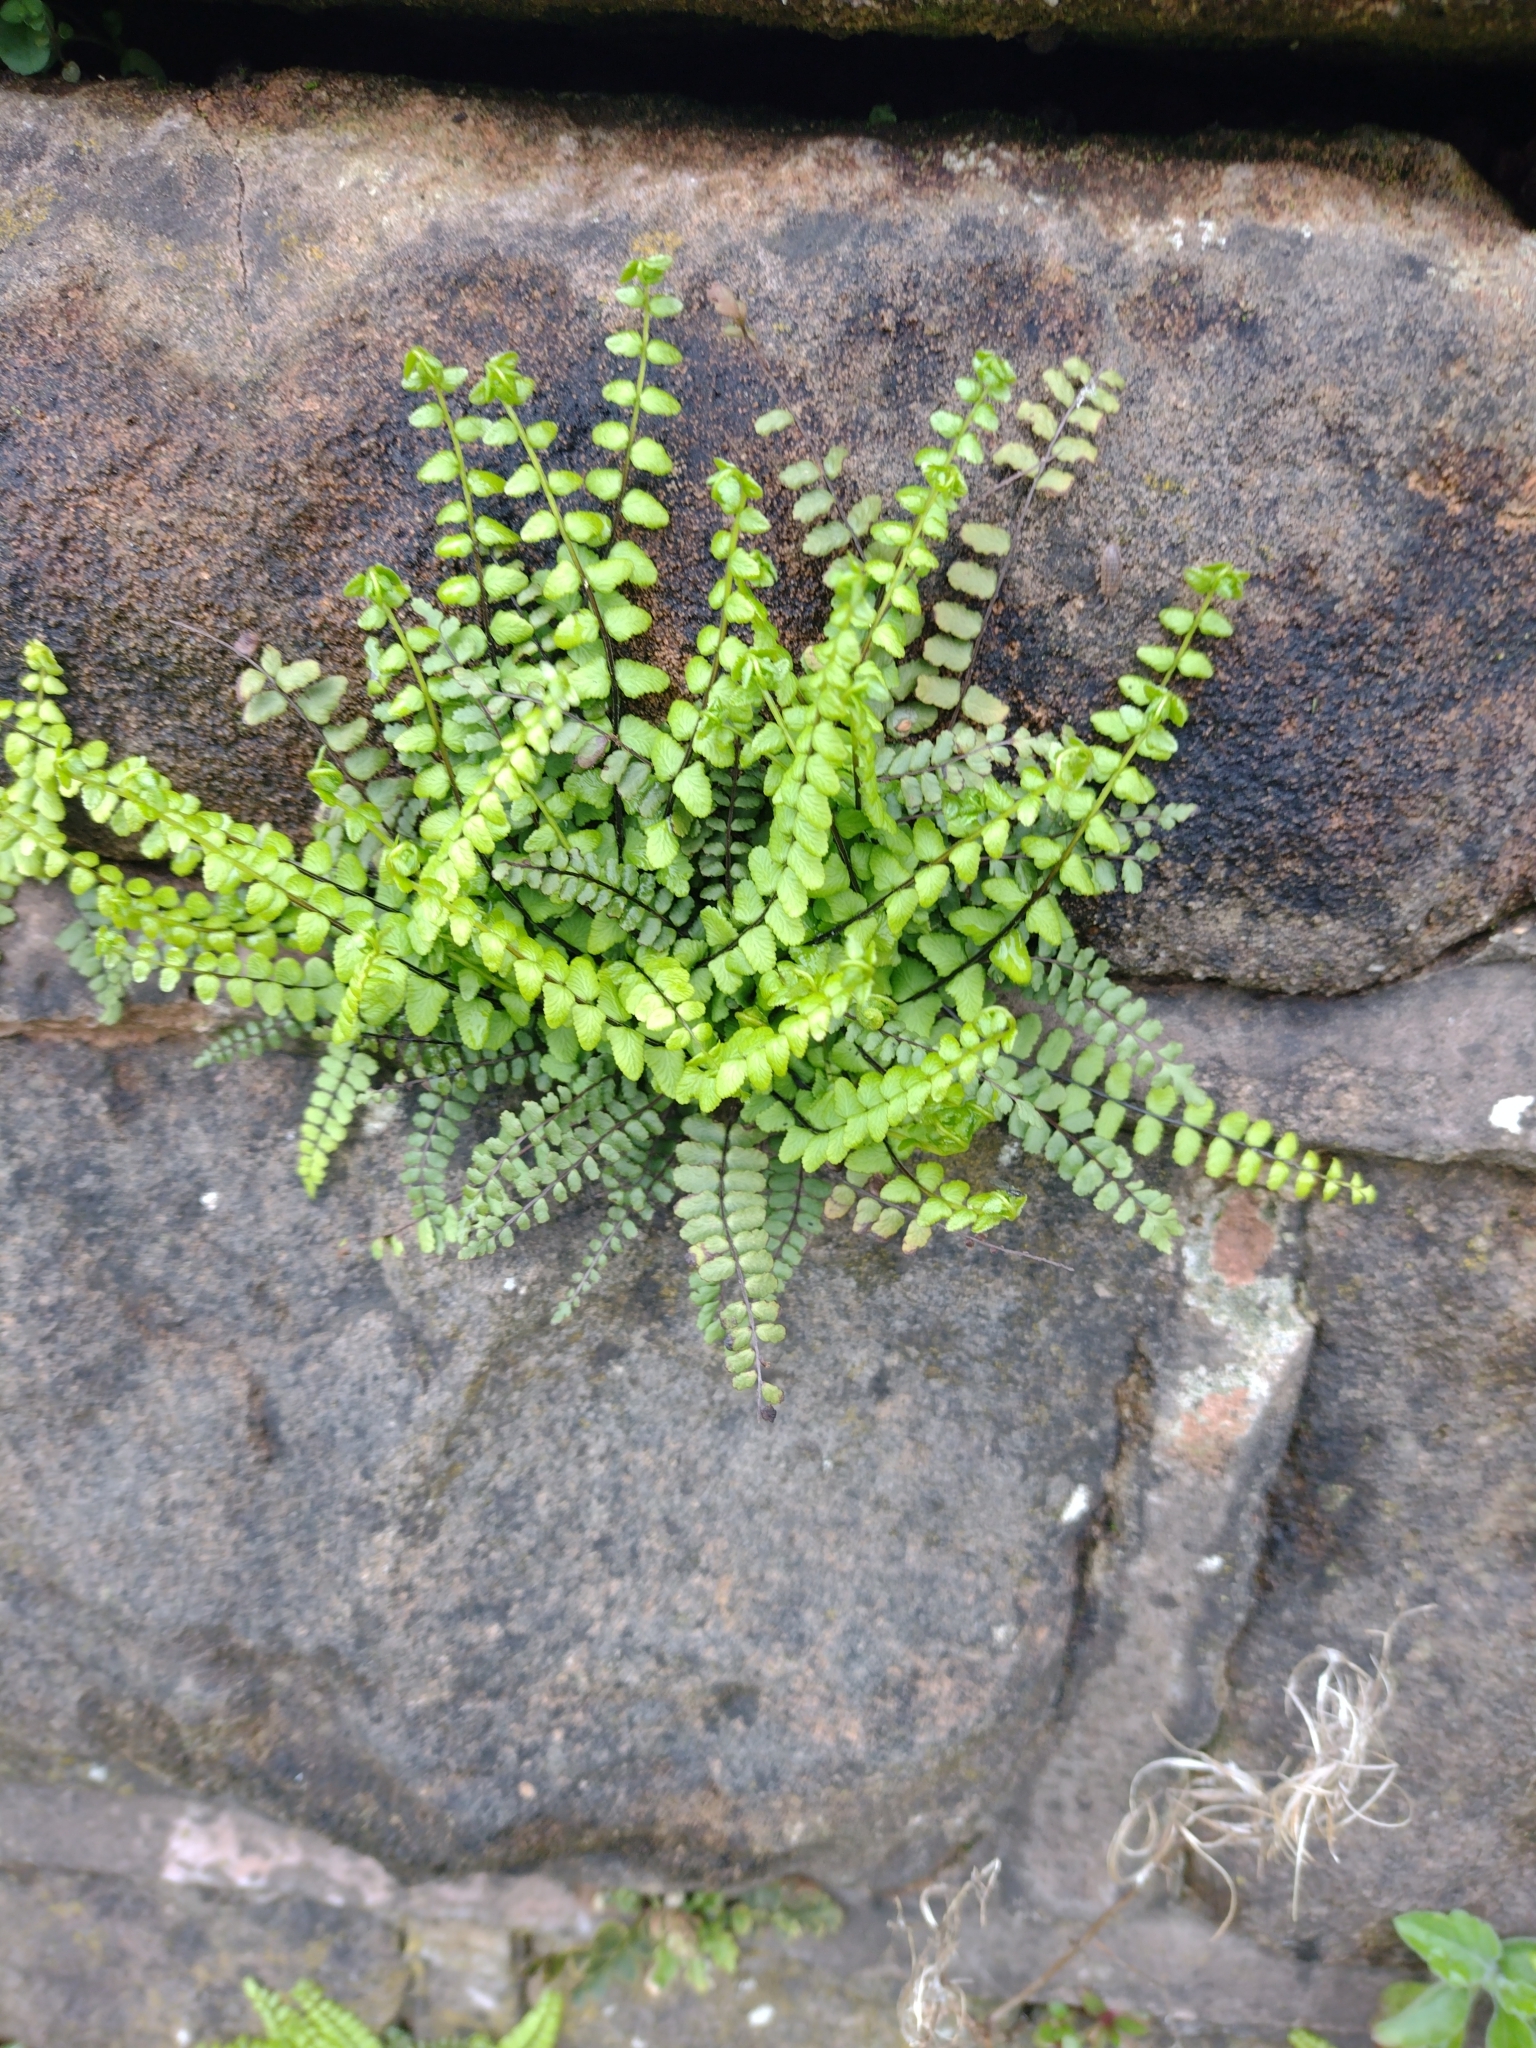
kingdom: Plantae
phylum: Tracheophyta
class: Polypodiopsida
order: Polypodiales
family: Aspleniaceae
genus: Asplenium
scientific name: Asplenium trichomanes
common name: Maidenhair spleenwort
